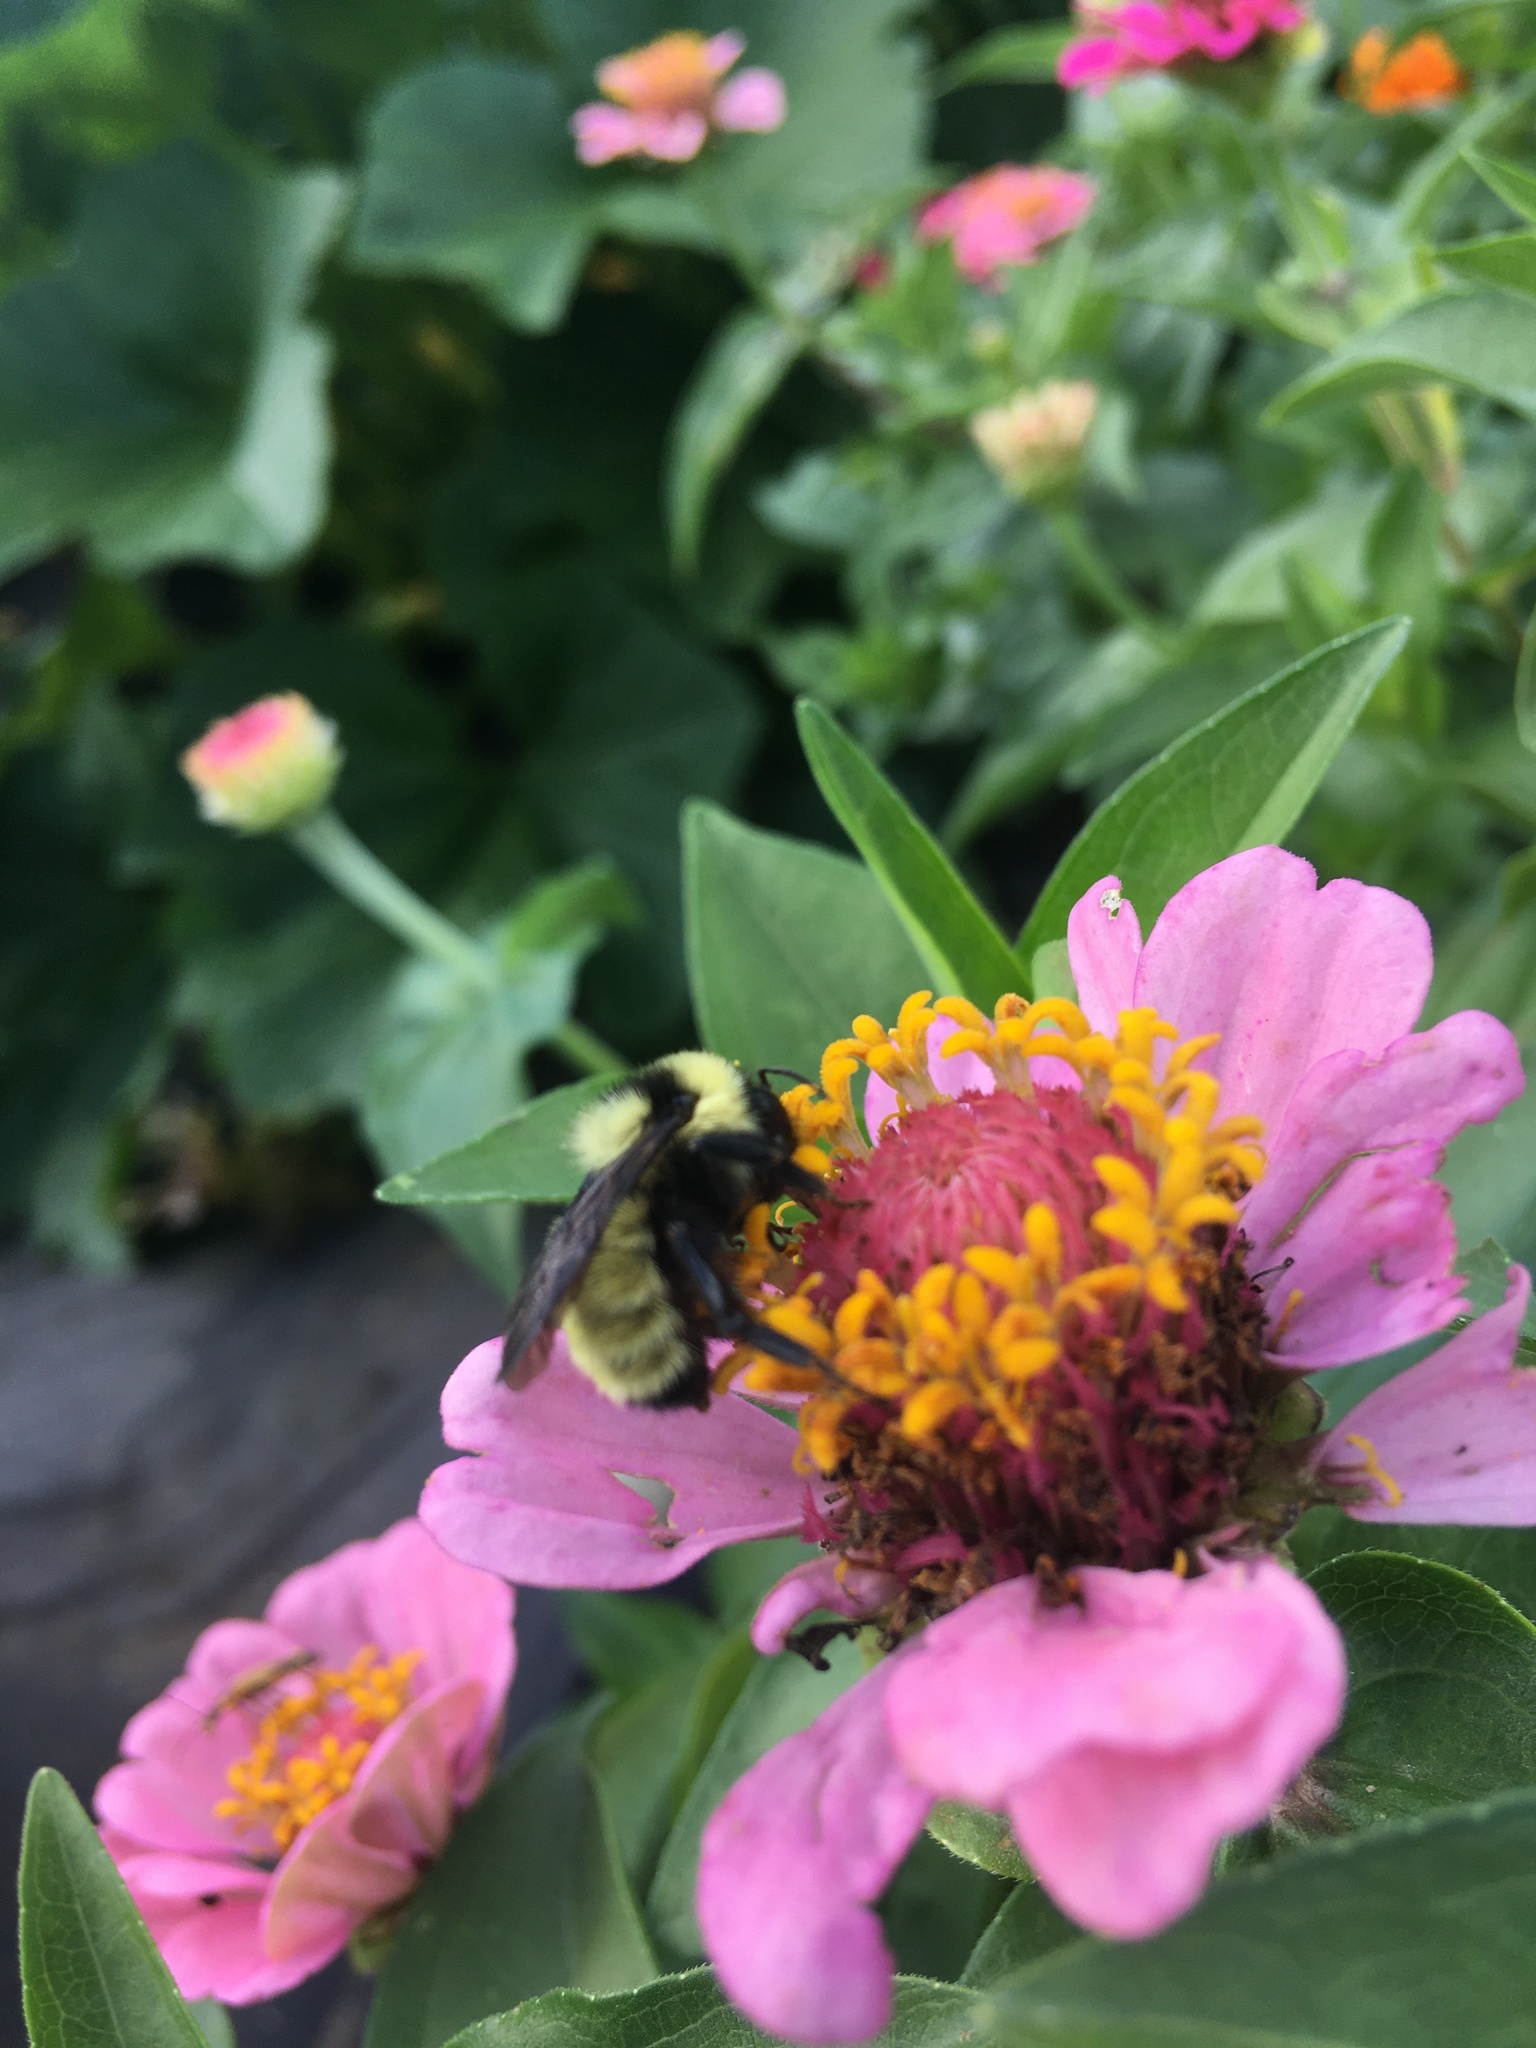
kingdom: Animalia
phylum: Arthropoda
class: Insecta
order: Hymenoptera
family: Apidae
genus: Bombus
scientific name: Bombus fervidus
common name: Yellow bumble bee
